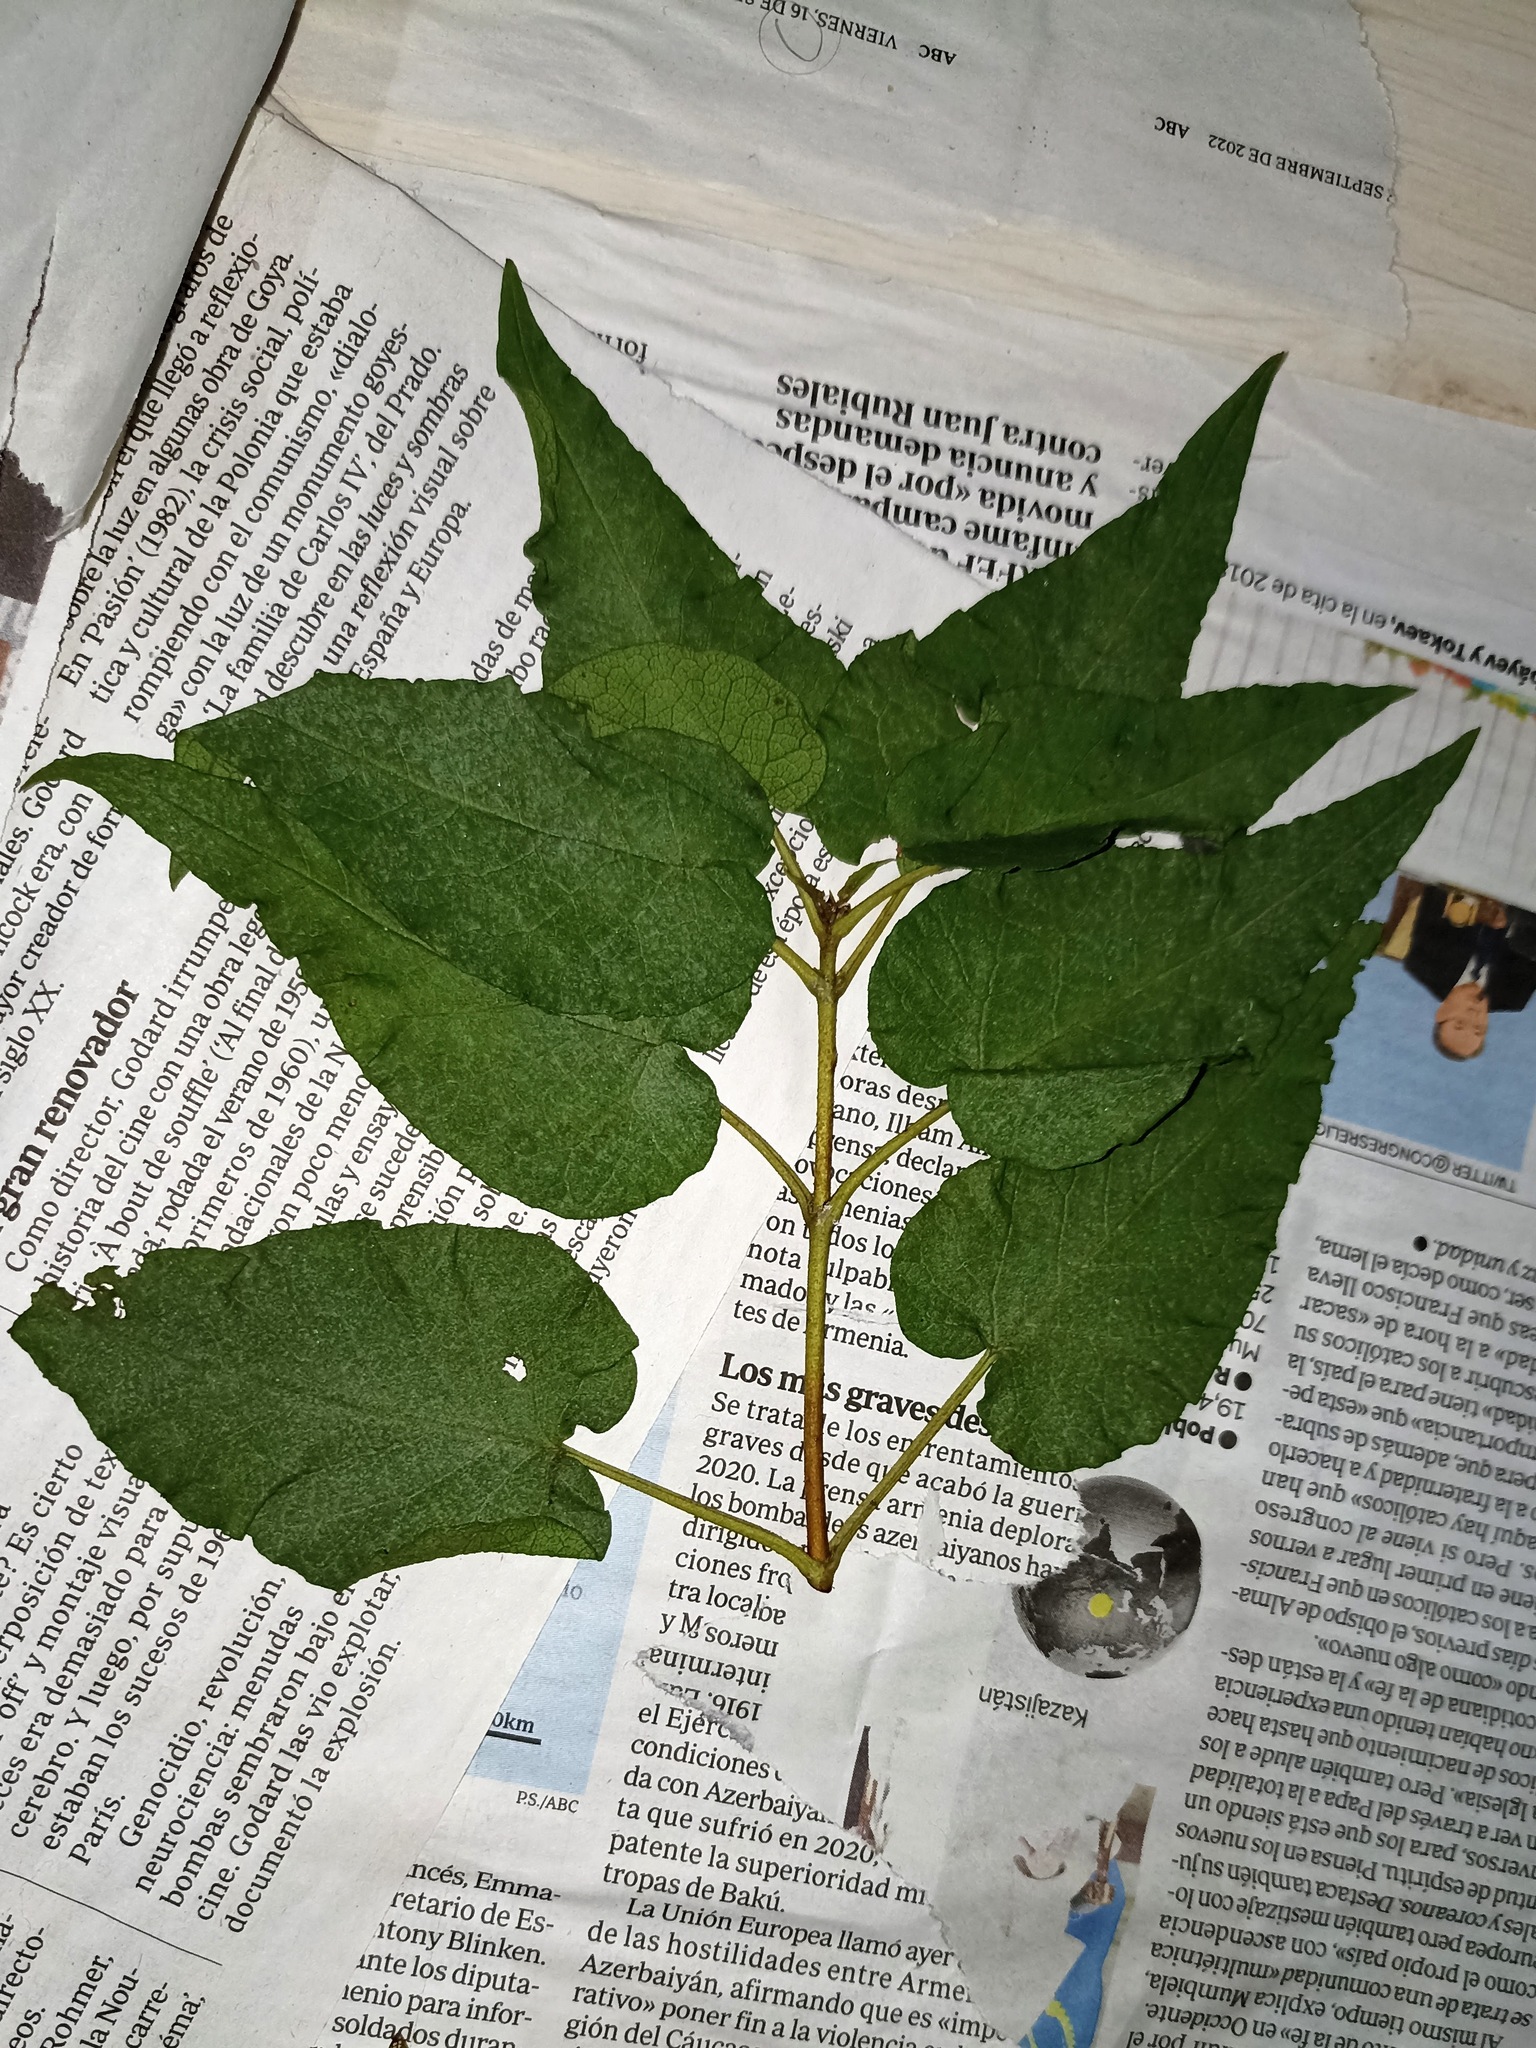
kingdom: Plantae
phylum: Tracheophyta
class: Magnoliopsida
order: Malvales
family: Cistaceae
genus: Cistus
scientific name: Cistus populifolius
